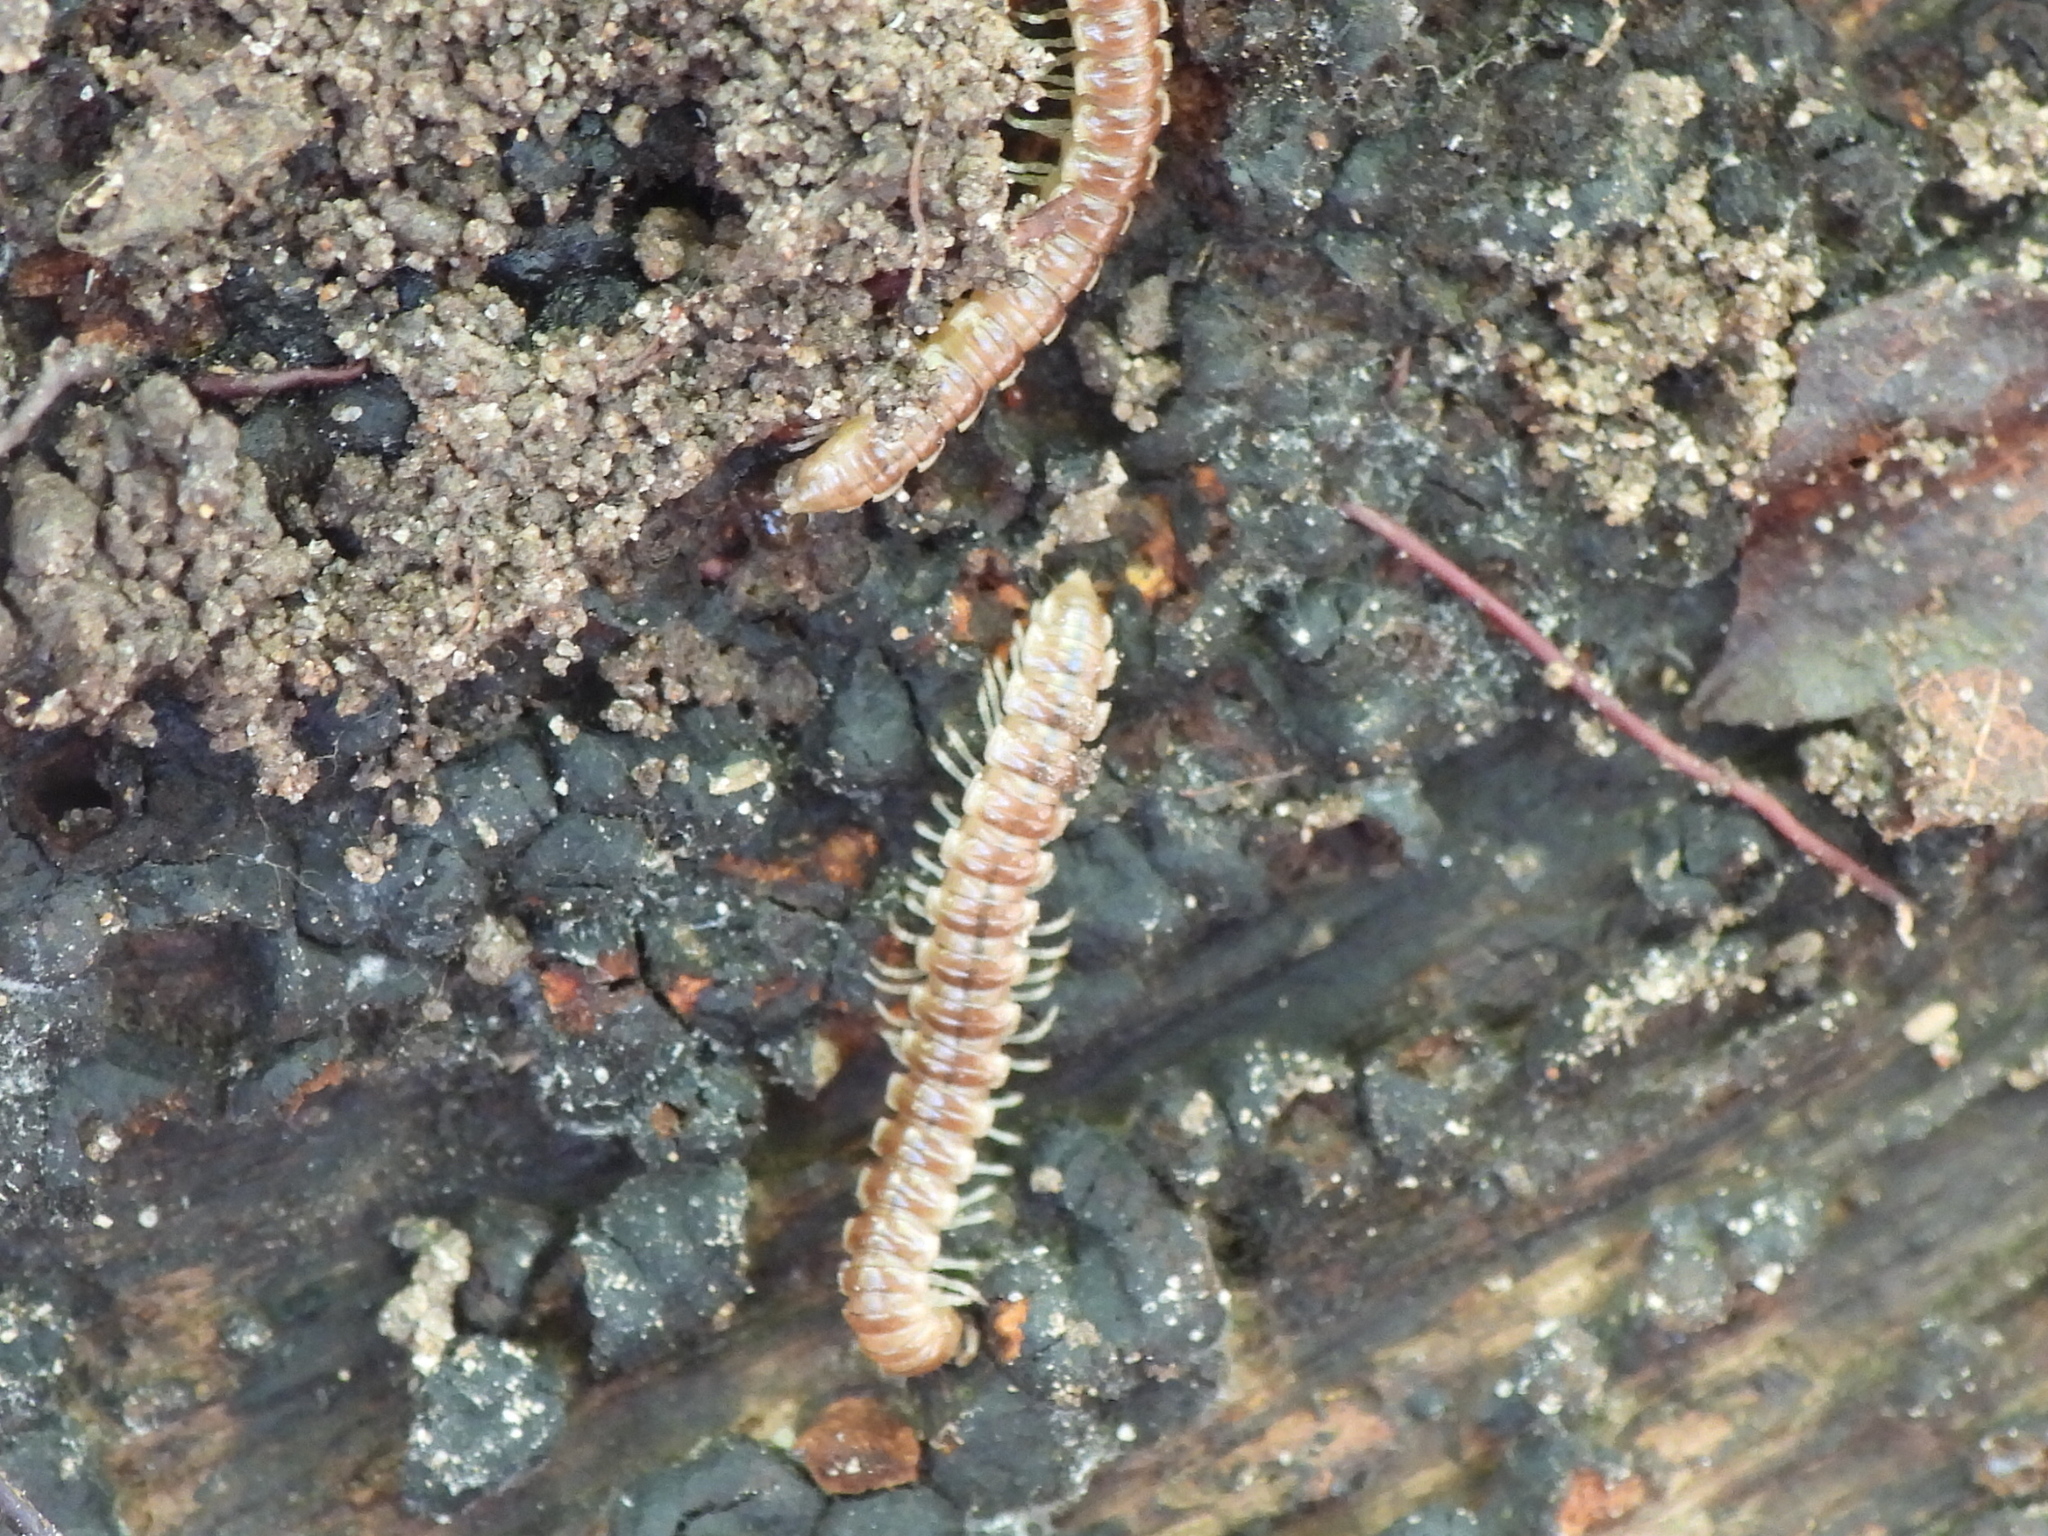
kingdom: Animalia
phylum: Arthropoda
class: Diplopoda
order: Polydesmida
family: Paradoxosomatidae
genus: Oxidus
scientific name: Oxidus gracilis
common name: Greenhouse millipede
